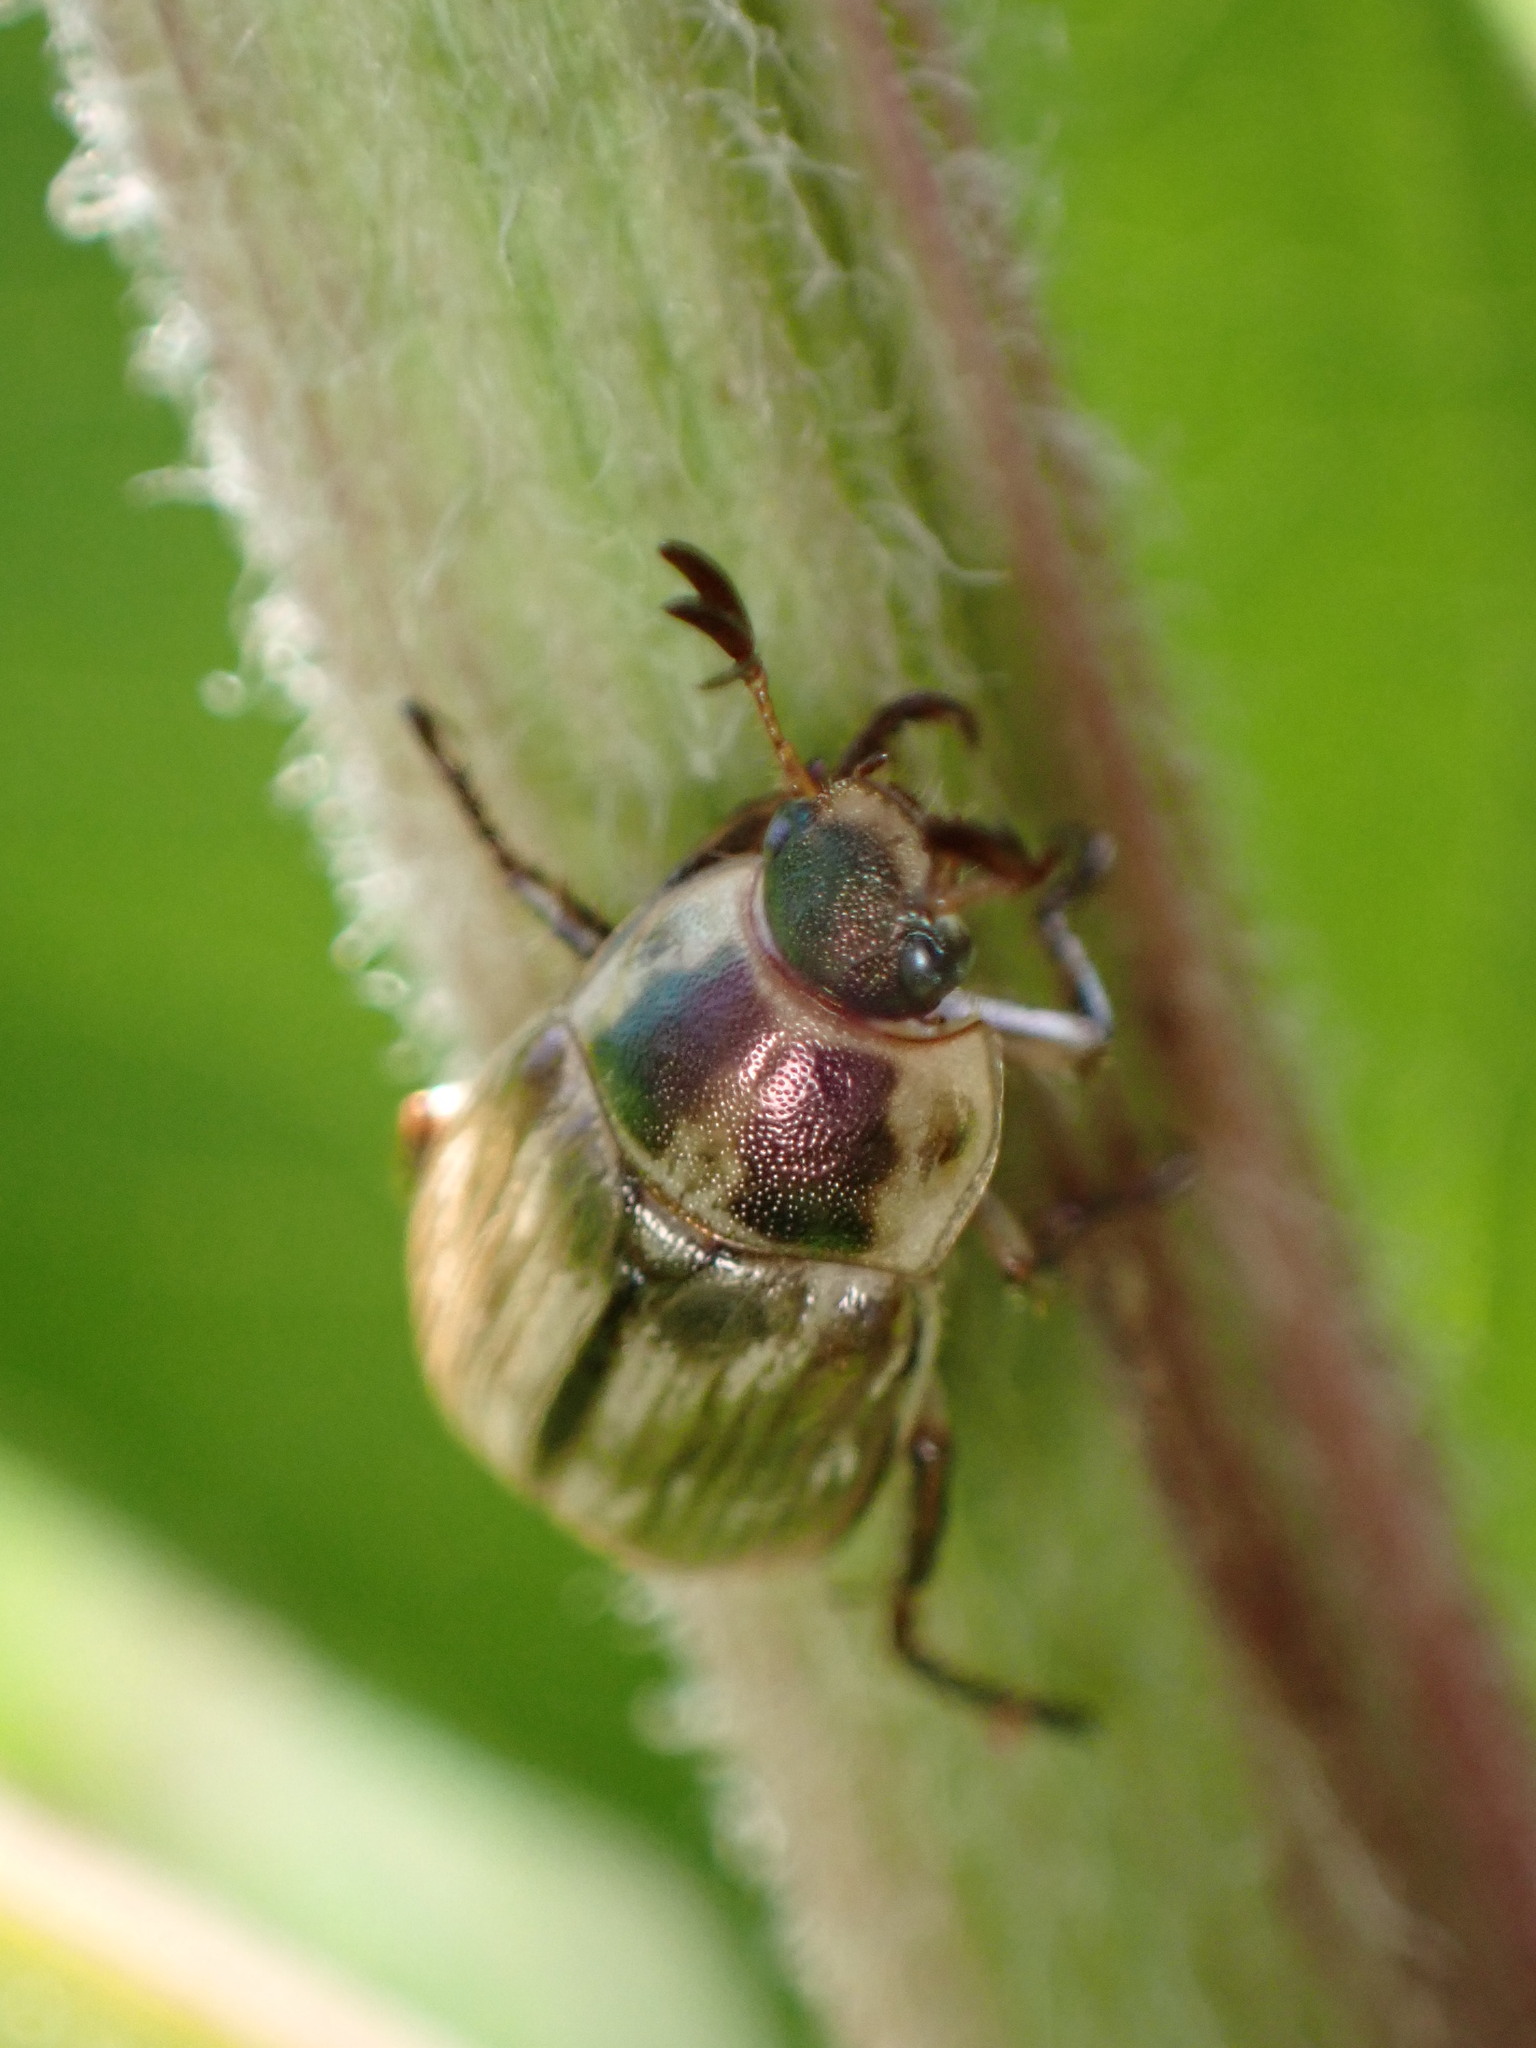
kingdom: Animalia
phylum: Arthropoda
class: Insecta
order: Coleoptera
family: Scarabaeidae
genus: Exomala
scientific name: Exomala orientalis
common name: Oriental beetle
